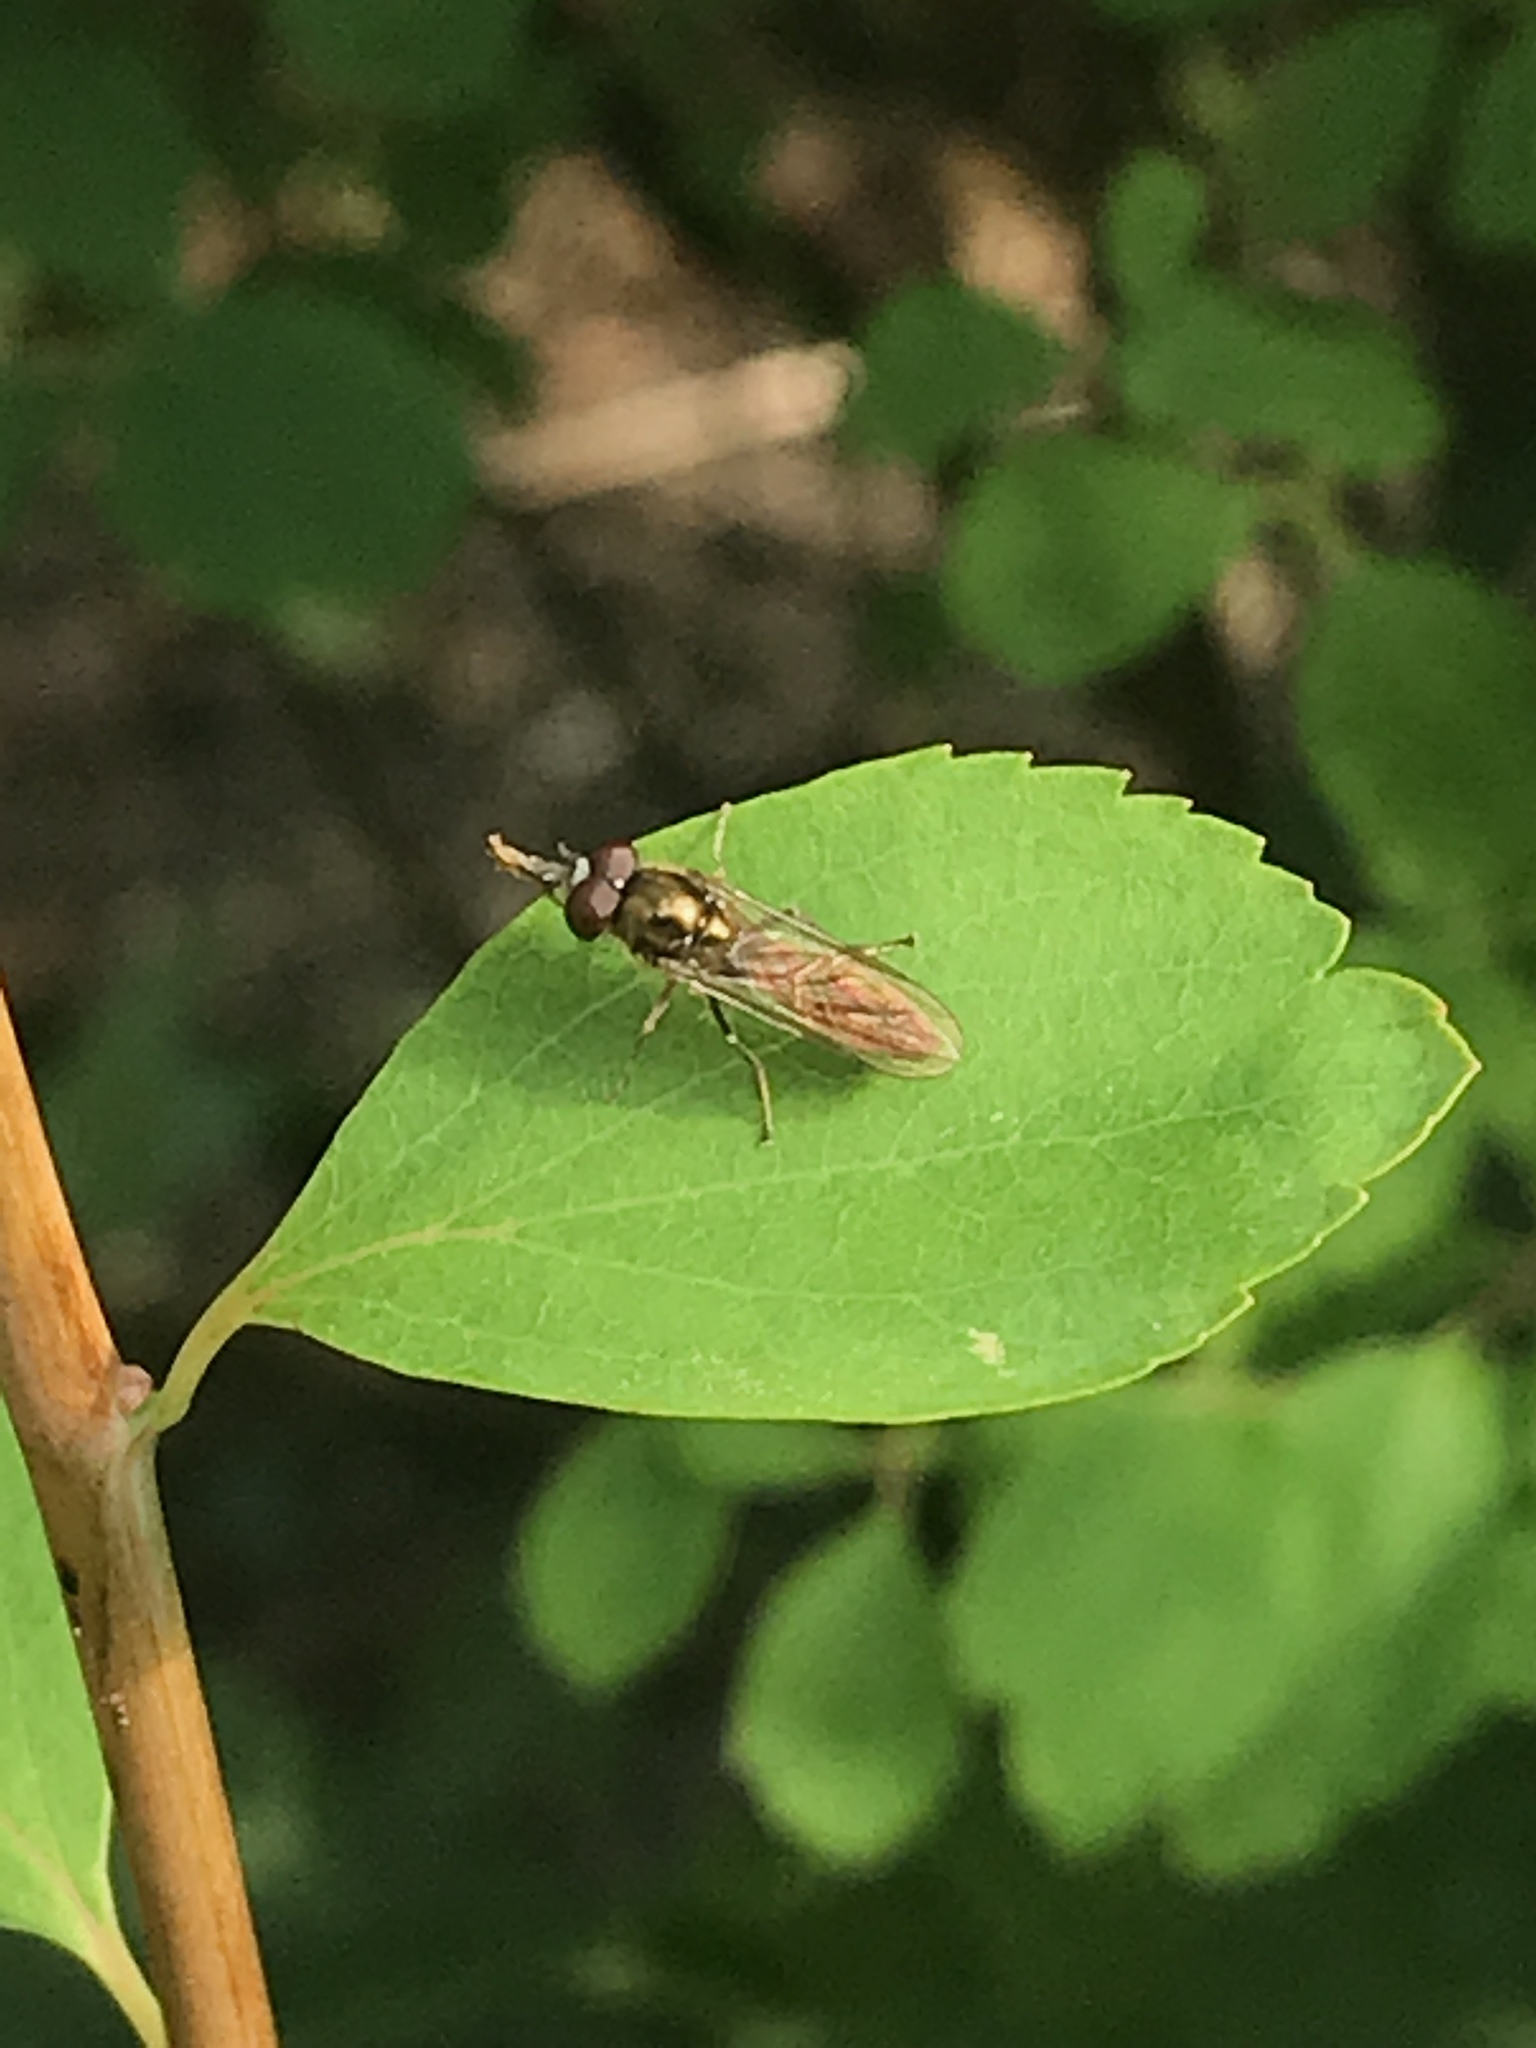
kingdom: Animalia
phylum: Arthropoda
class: Insecta
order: Diptera
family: Syrphidae
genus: Platycheirus
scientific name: Platycheirus albimanus
